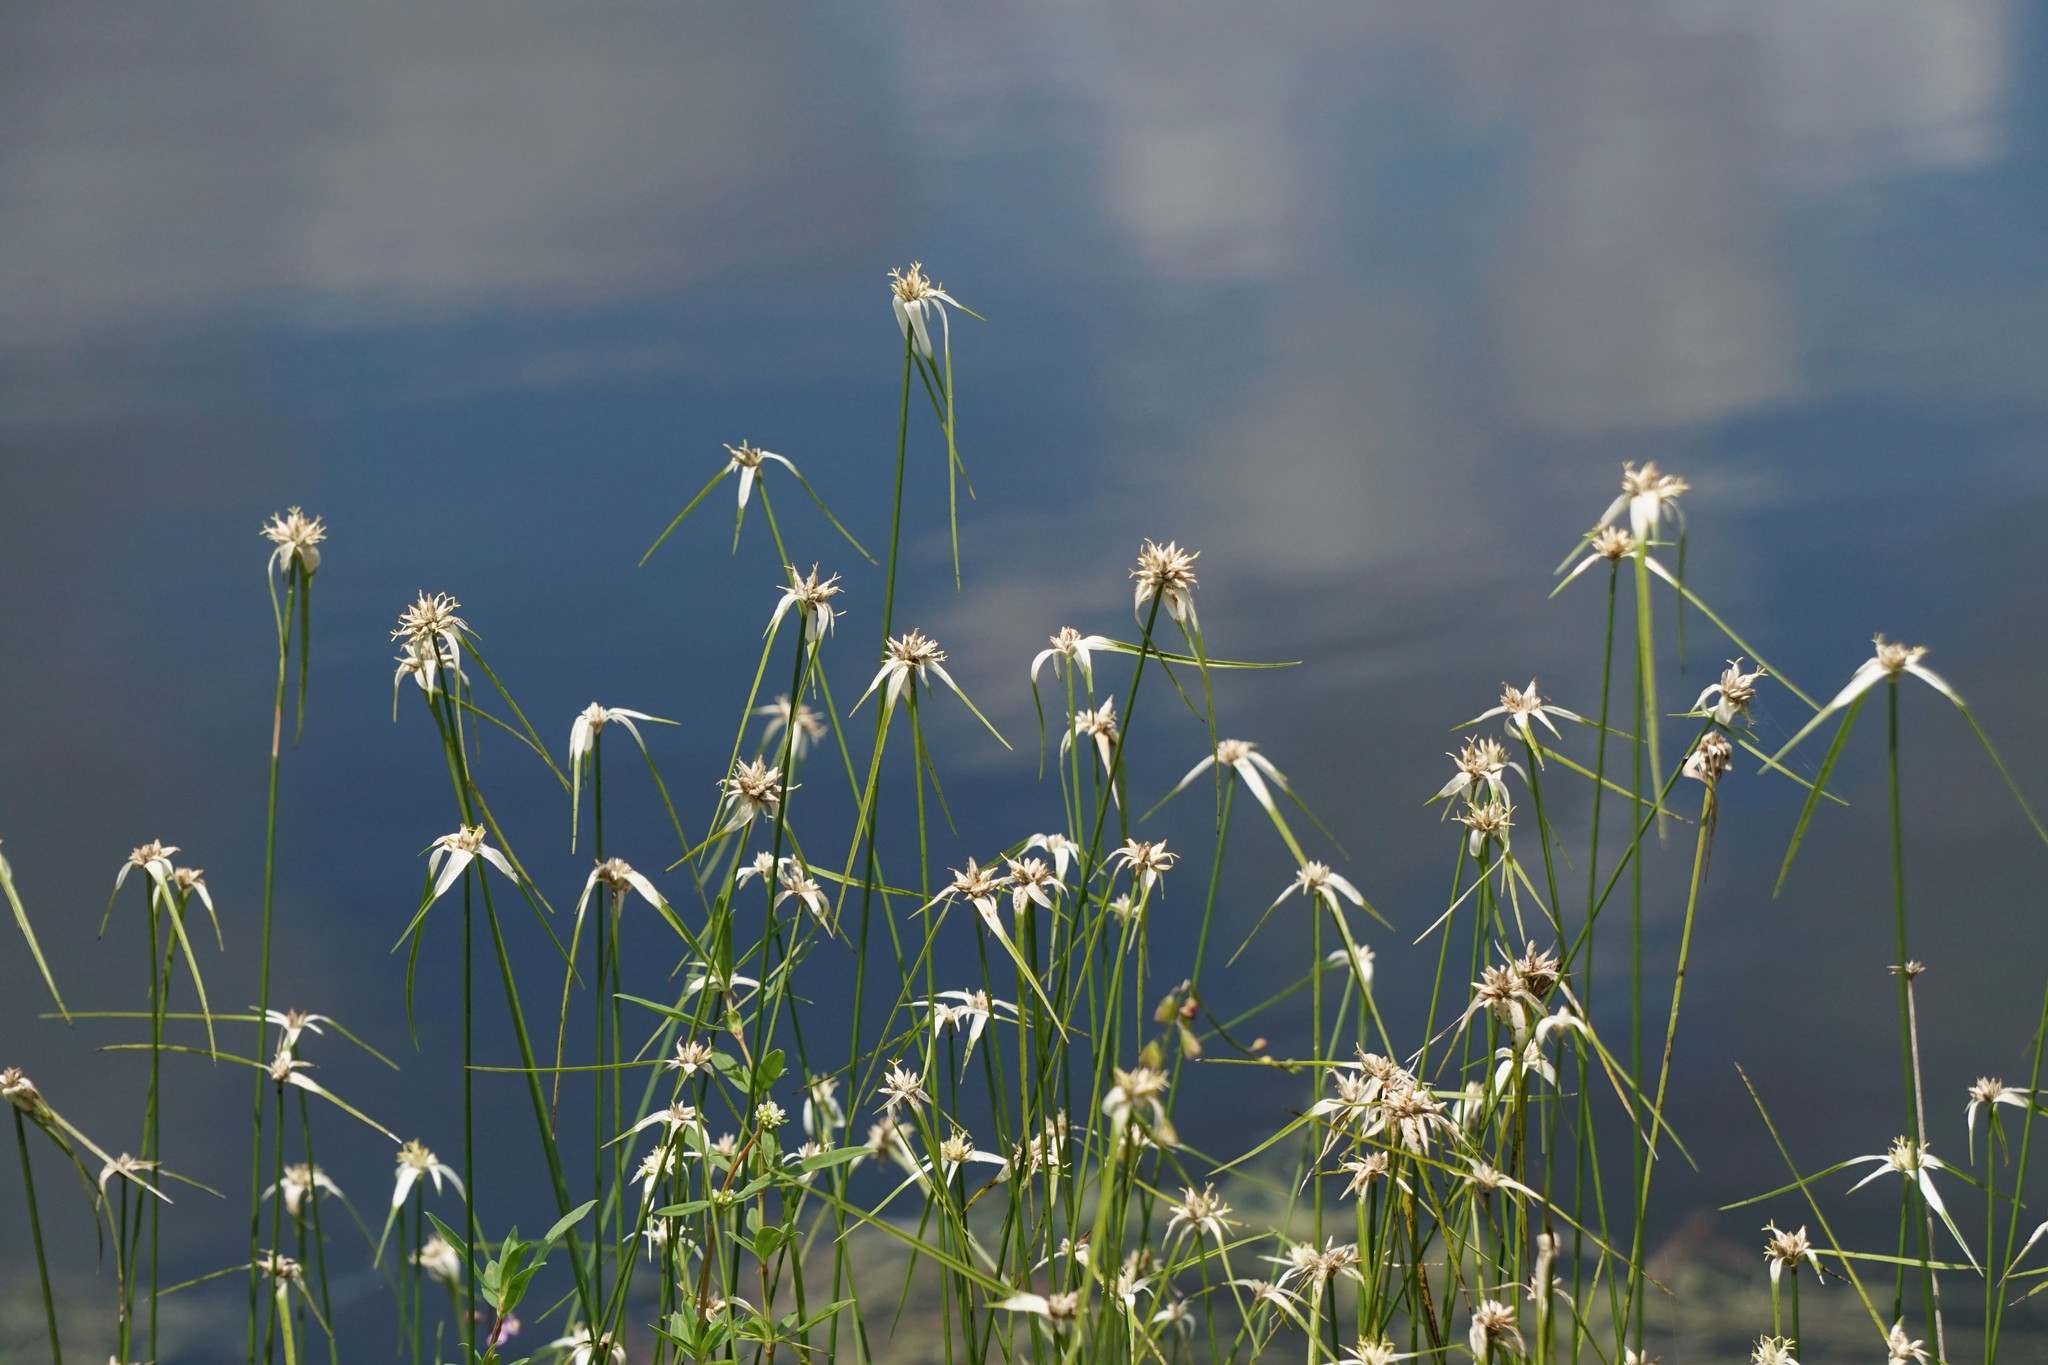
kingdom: Plantae
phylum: Tracheophyta
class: Liliopsida
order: Poales
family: Cyperaceae
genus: Rhynchospora
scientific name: Rhynchospora colorata
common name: Star sedge
